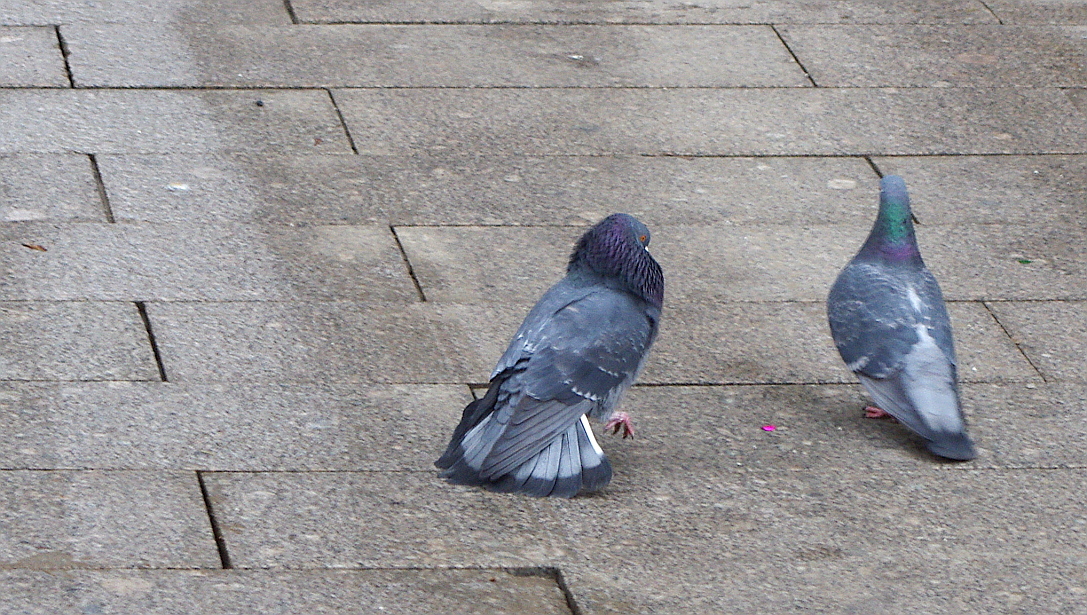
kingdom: Animalia
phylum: Chordata
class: Aves
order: Columbiformes
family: Columbidae
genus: Columba
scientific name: Columba livia
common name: Rock pigeon
